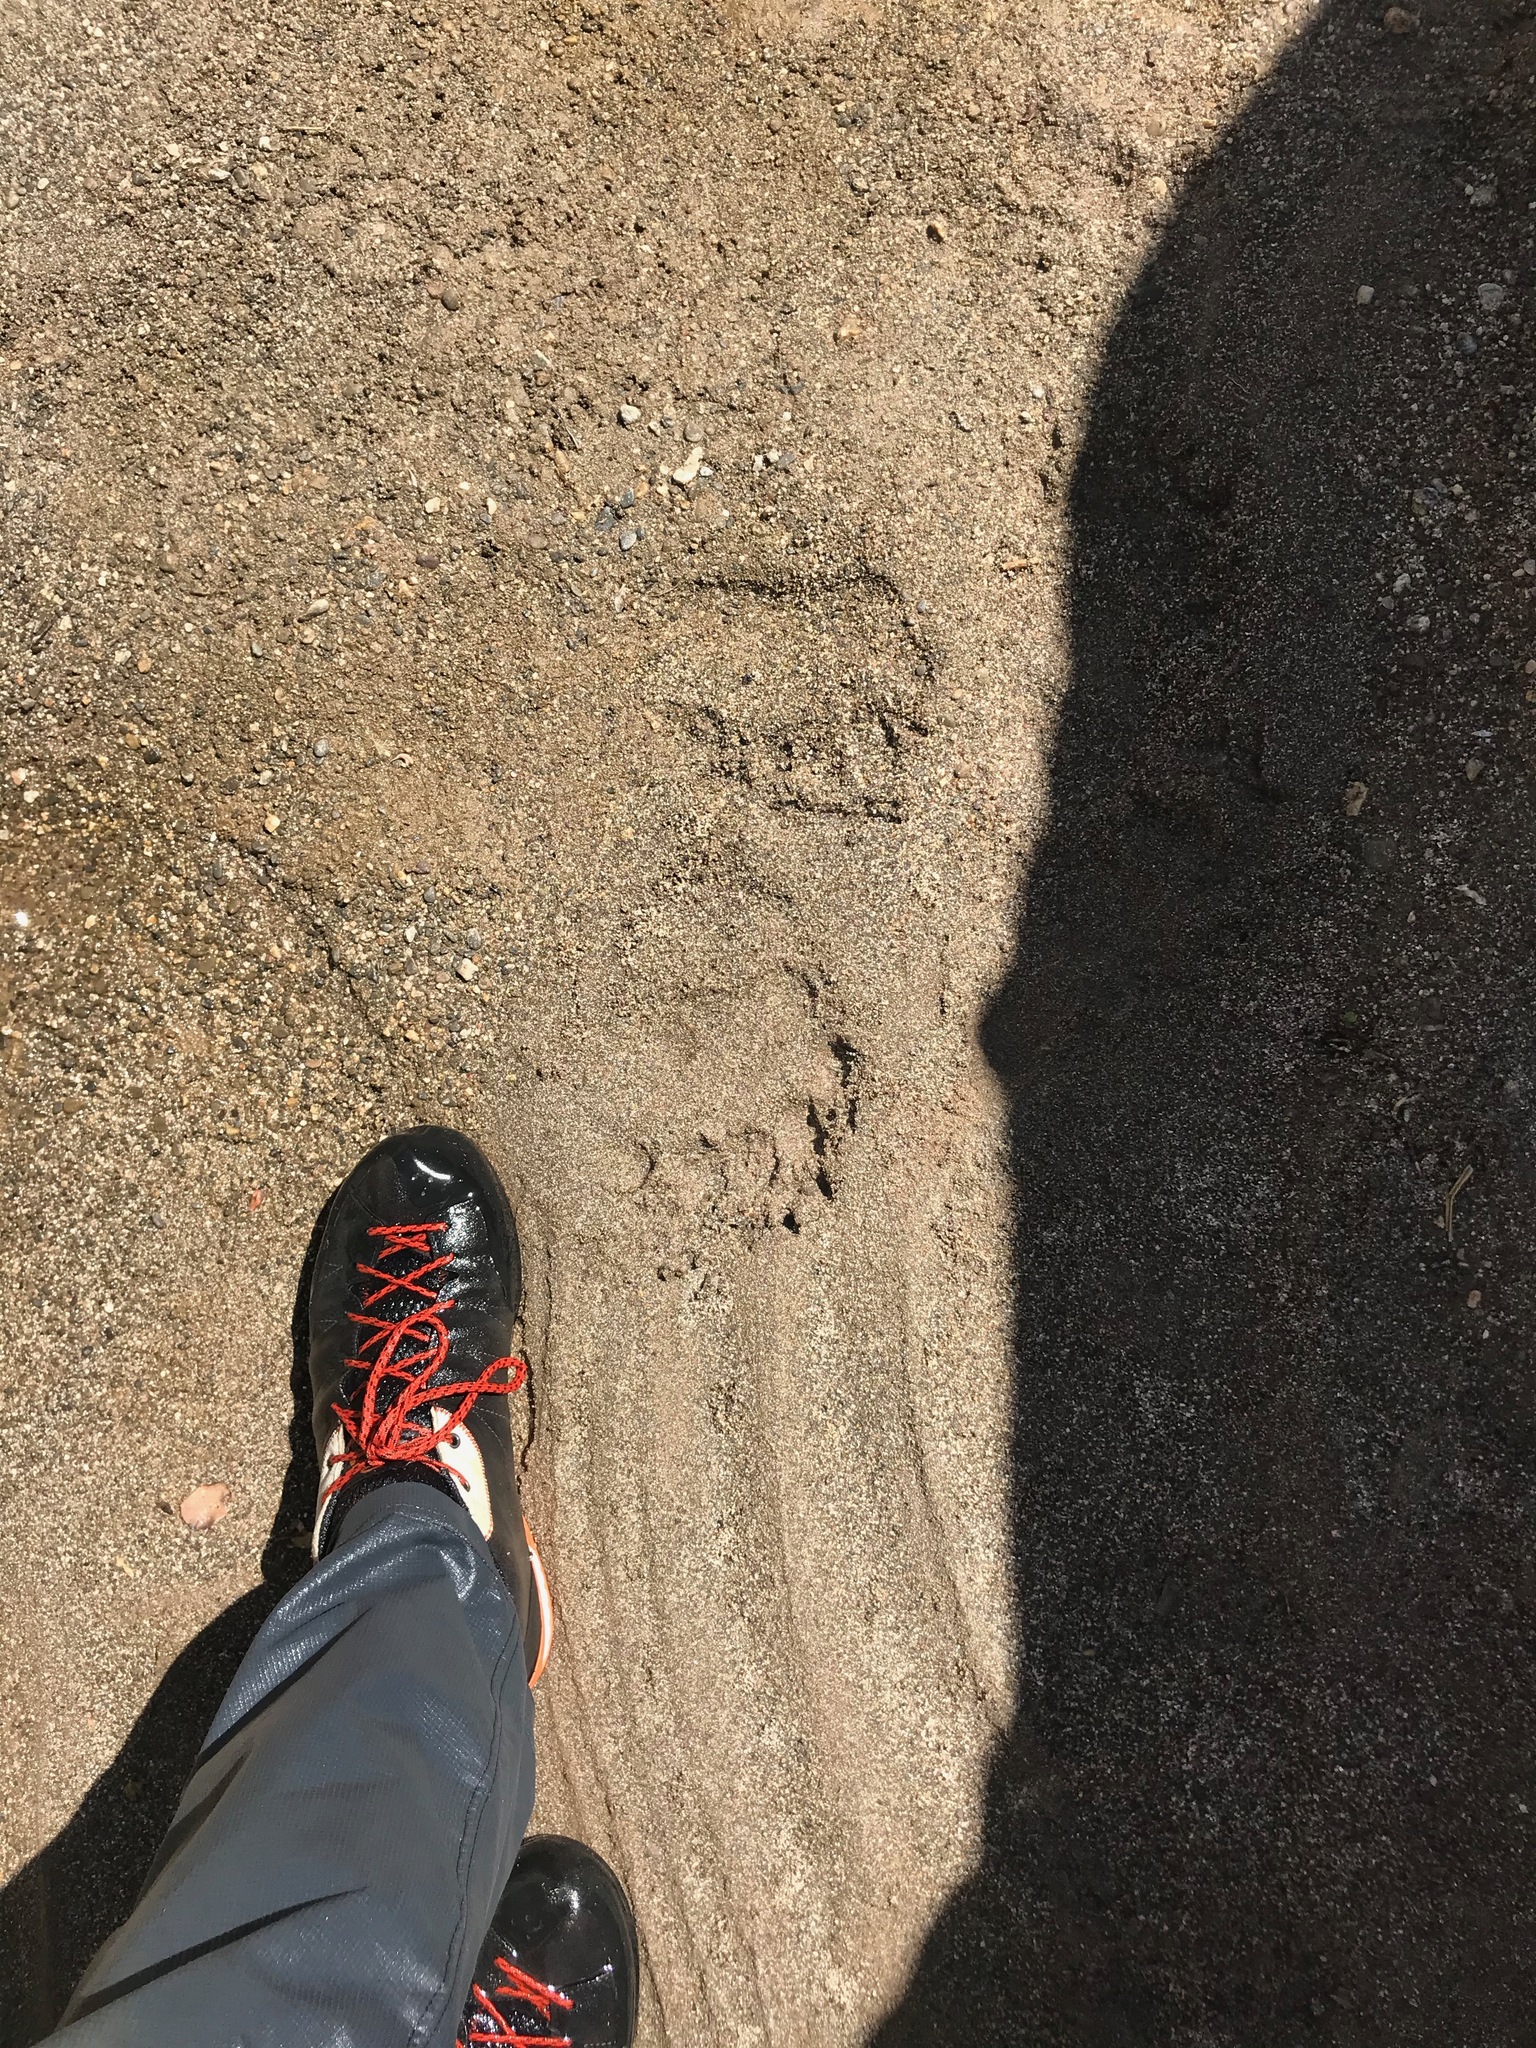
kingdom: Animalia
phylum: Chordata
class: Mammalia
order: Carnivora
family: Ursidae
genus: Ursus
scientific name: Ursus americanus
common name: American black bear
